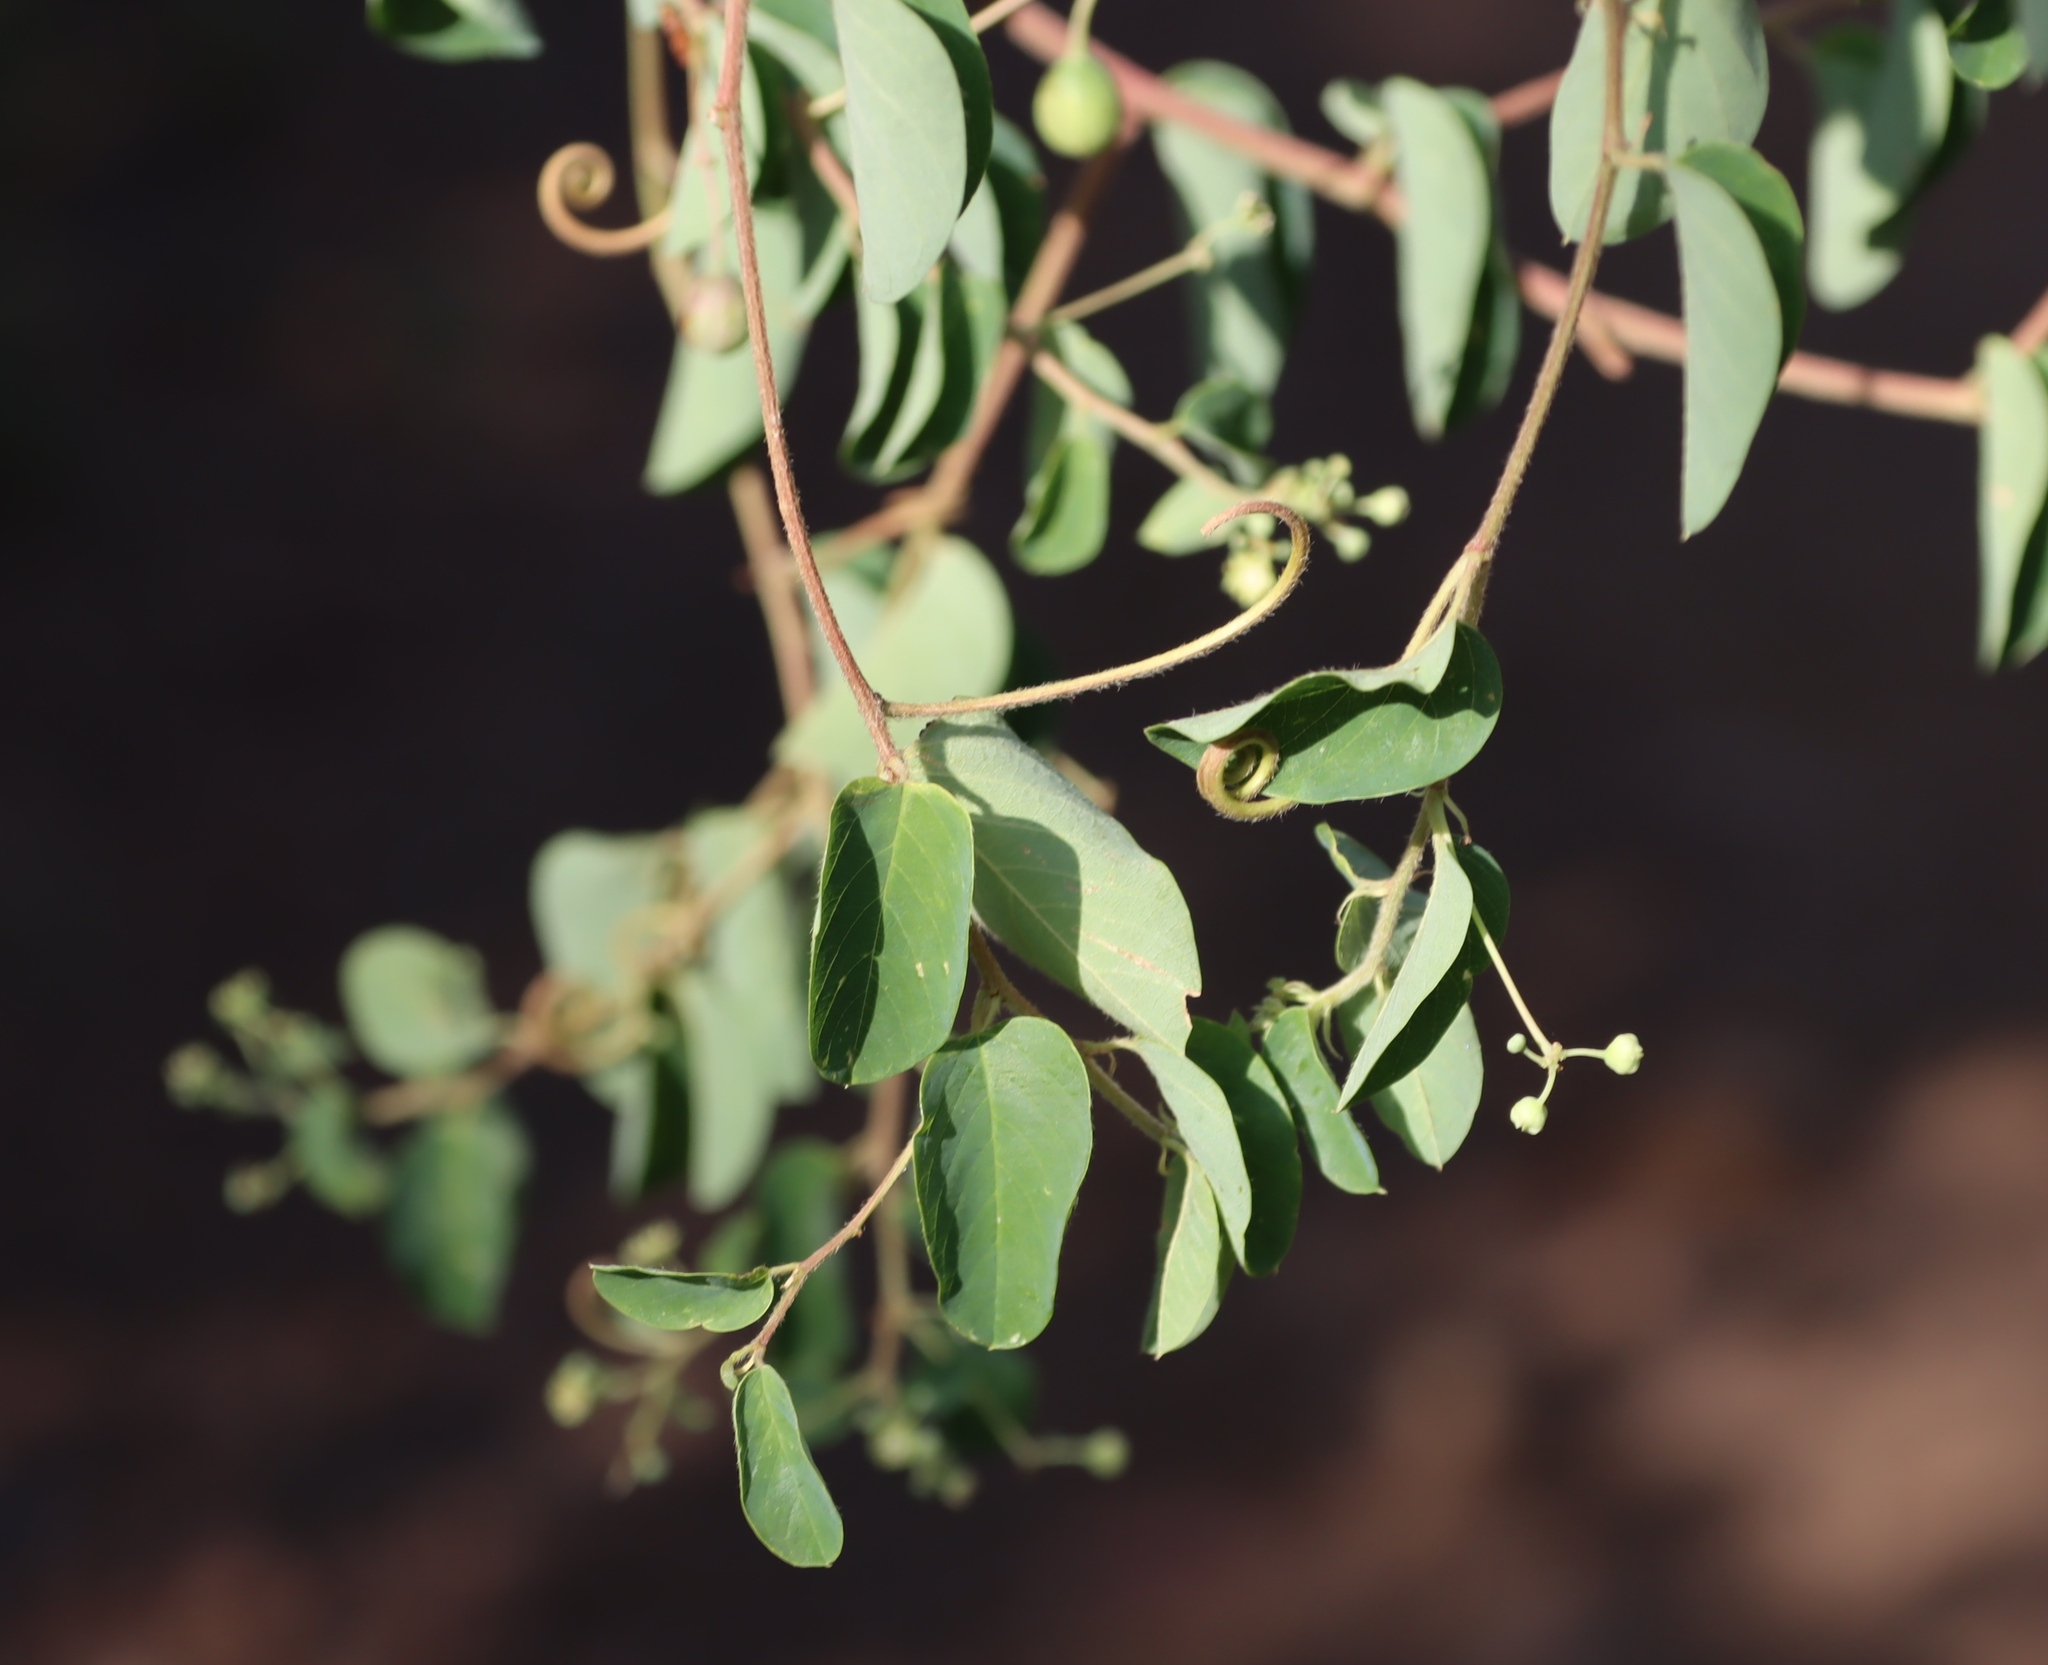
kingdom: Plantae
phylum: Tracheophyta
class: Magnoliopsida
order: Rosales
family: Rhamnaceae
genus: Helinus
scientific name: Helinus integrifolius
